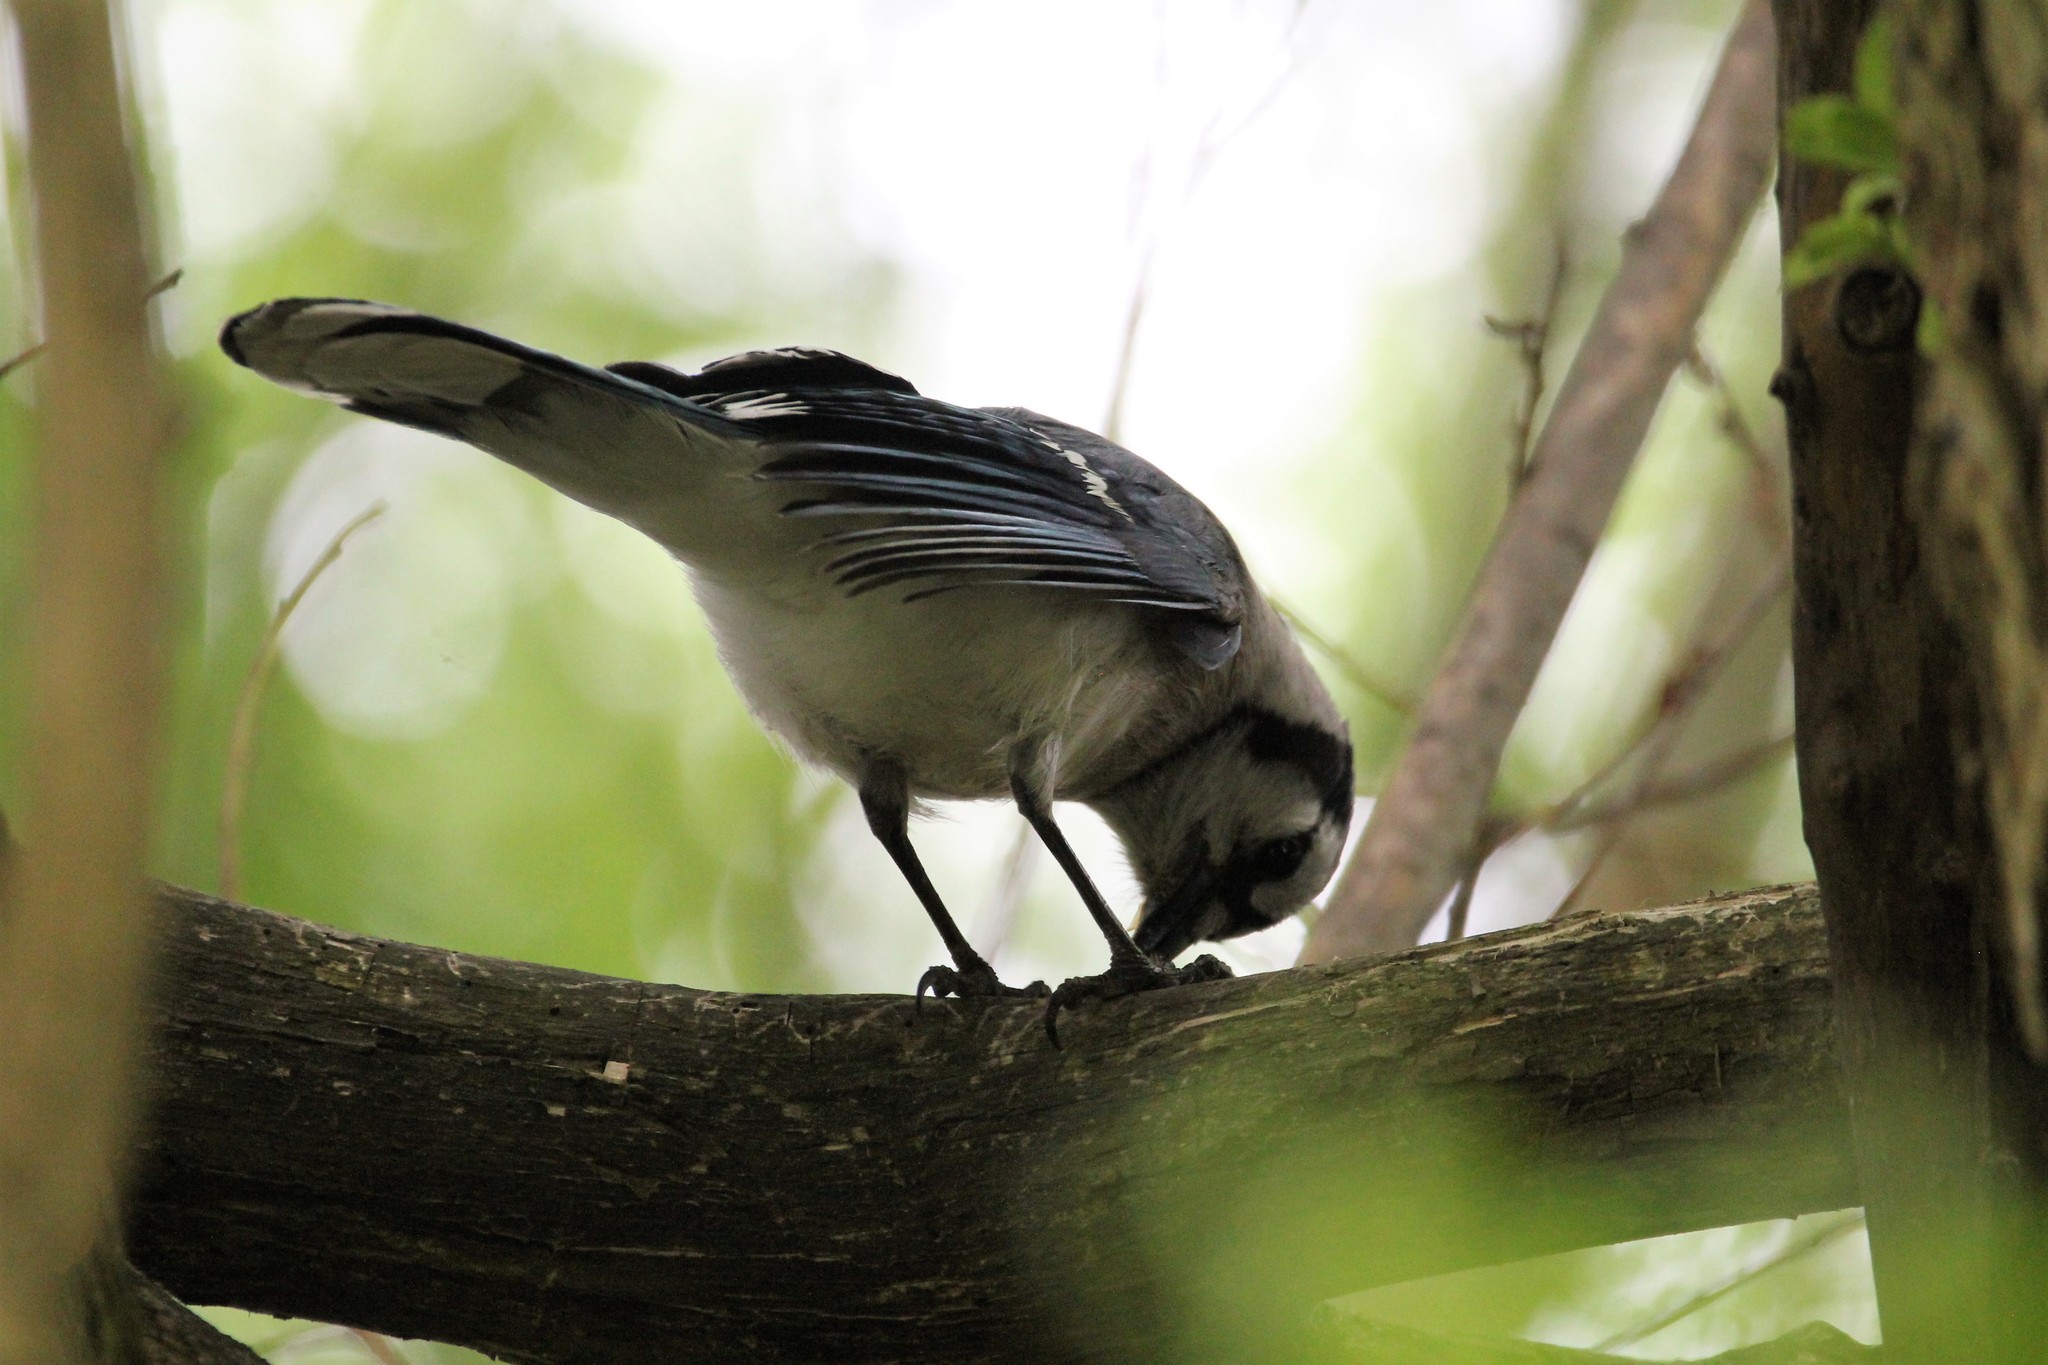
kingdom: Animalia
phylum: Chordata
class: Aves
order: Passeriformes
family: Corvidae
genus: Cyanocitta
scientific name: Cyanocitta cristata
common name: Blue jay
